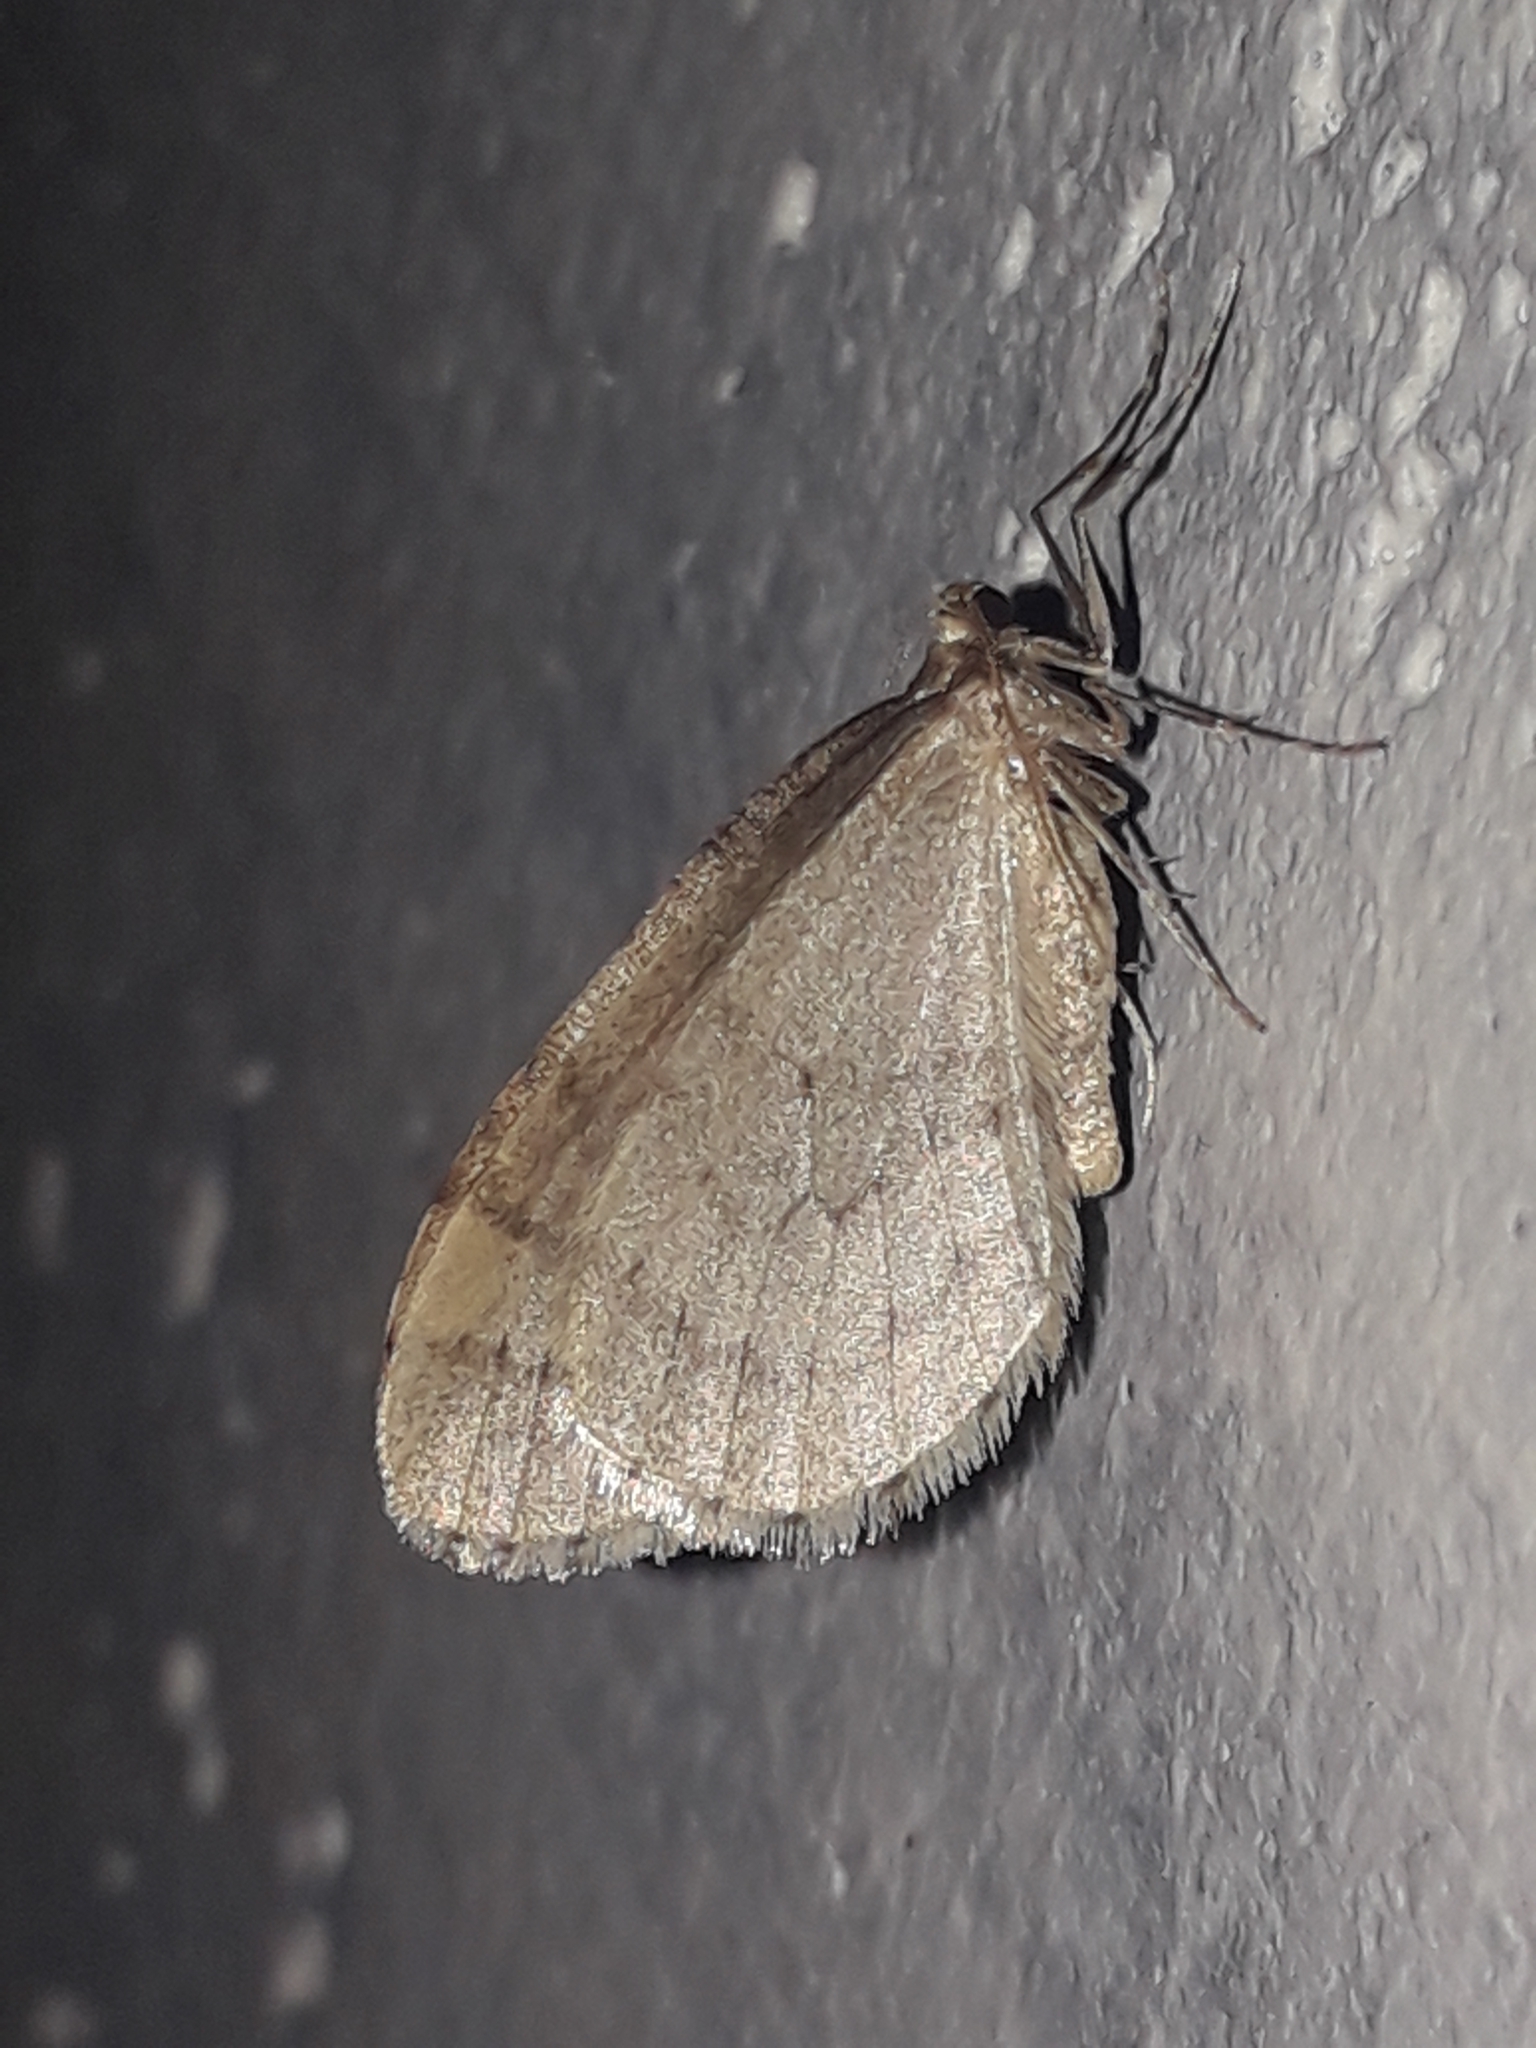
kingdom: Animalia
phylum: Arthropoda
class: Insecta
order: Lepidoptera
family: Geometridae
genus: Operophtera
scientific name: Operophtera brumata
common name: Winter moth
